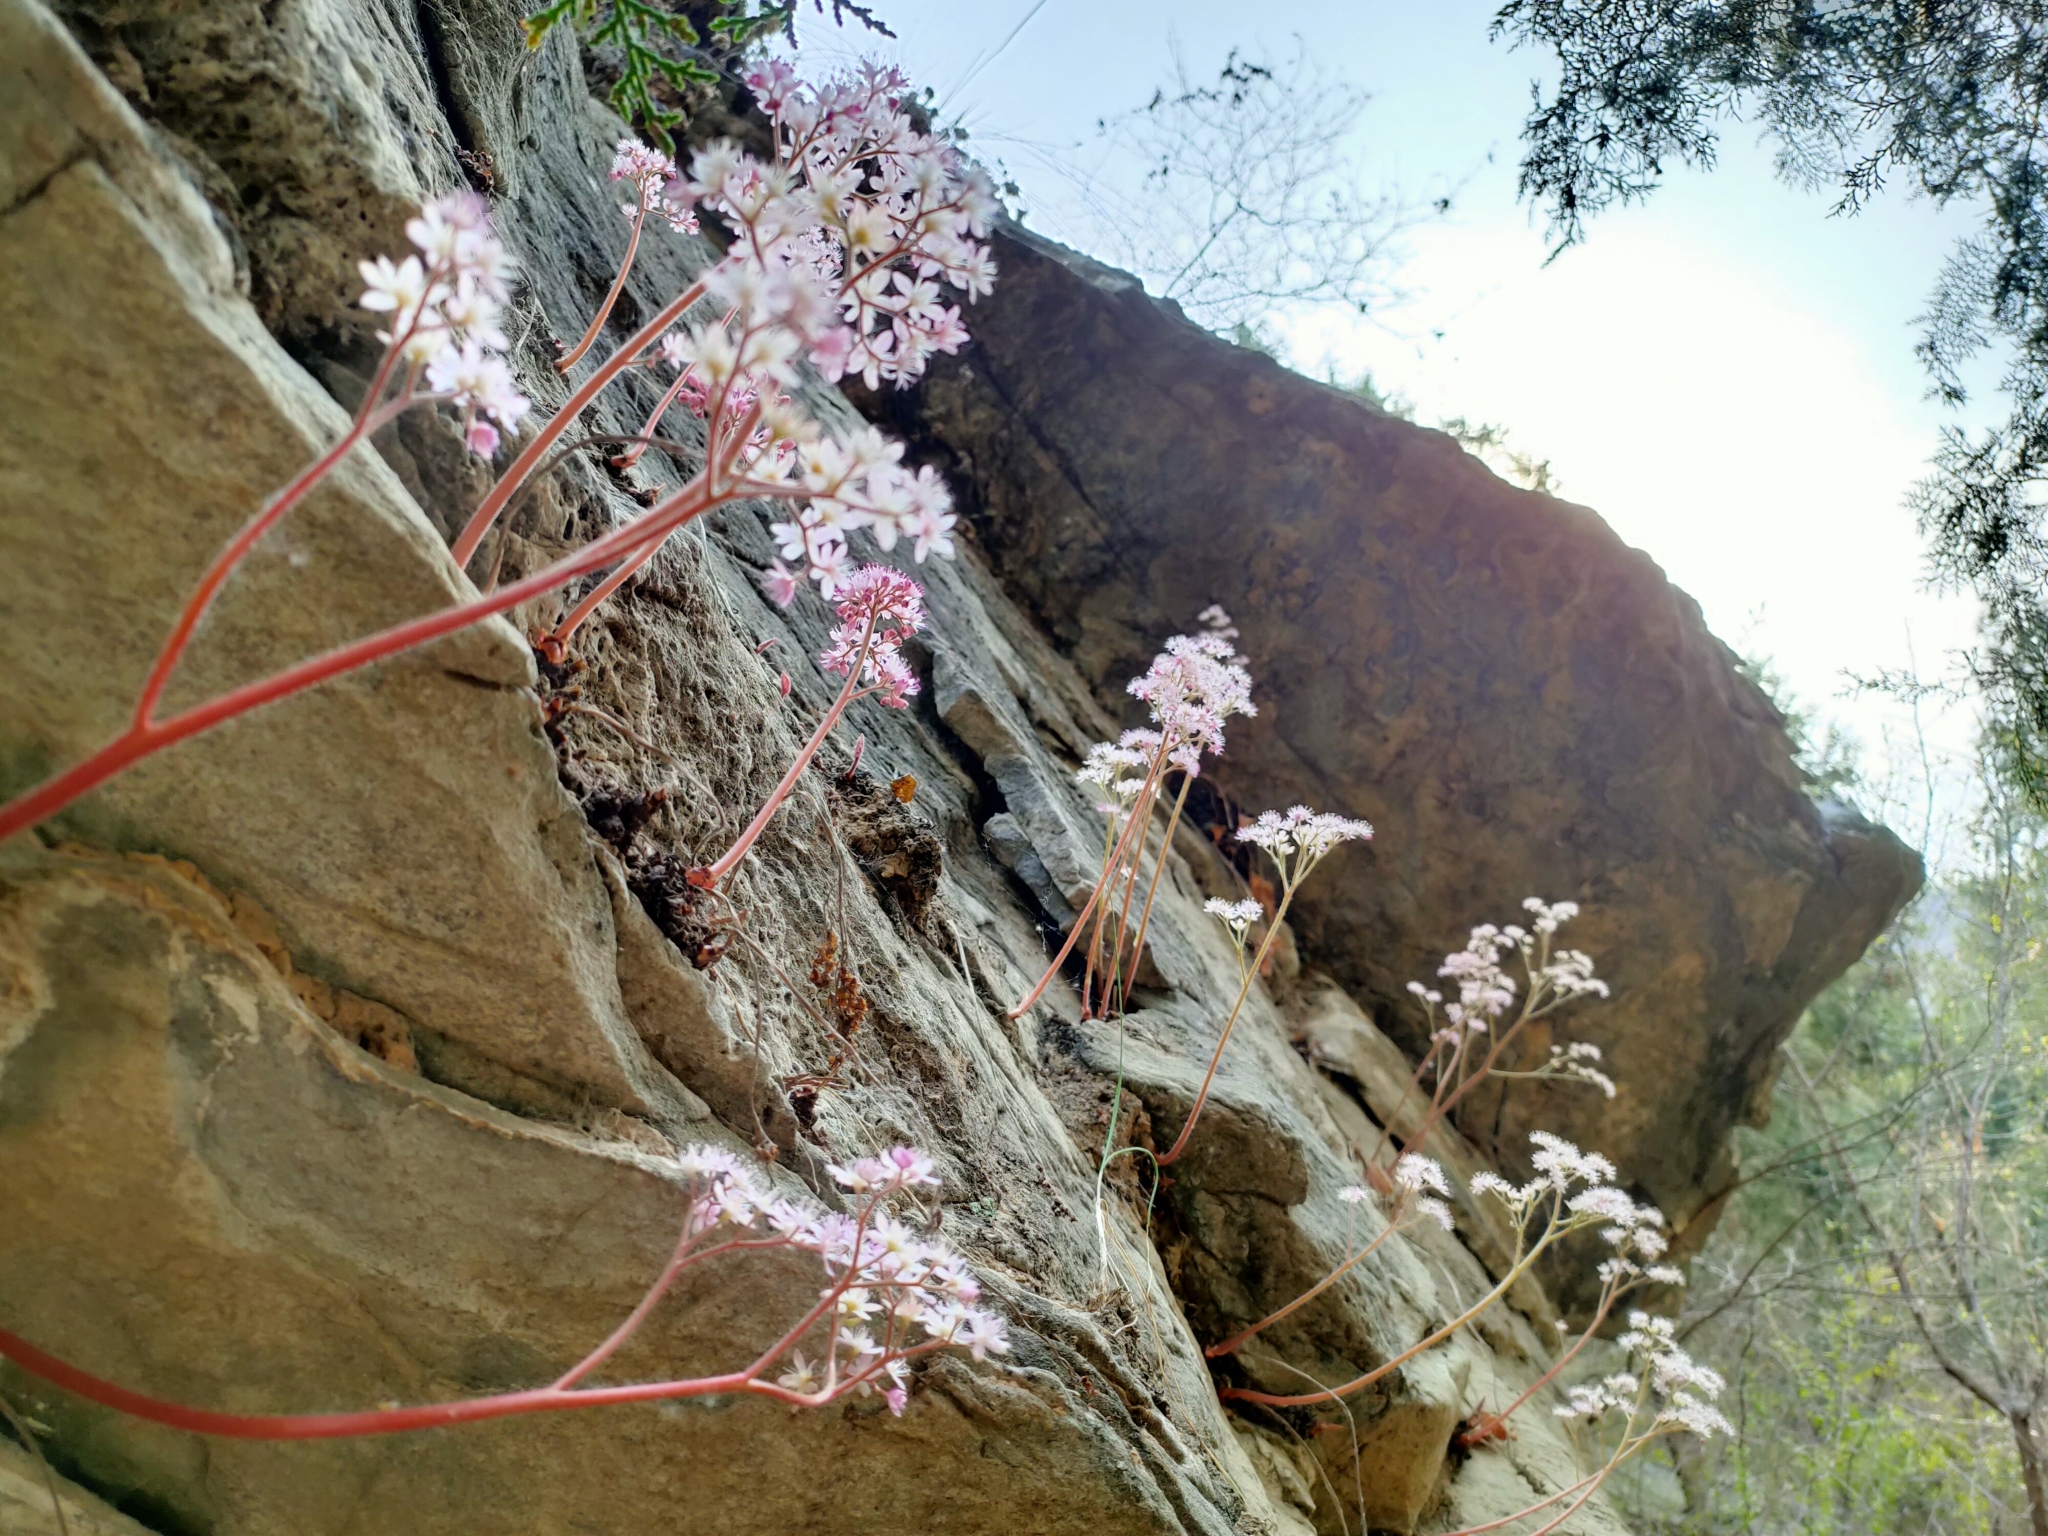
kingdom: Plantae
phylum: Tracheophyta
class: Magnoliopsida
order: Saxifragales
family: Saxifragaceae
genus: Oresitrophe
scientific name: Oresitrophe rupifraga
